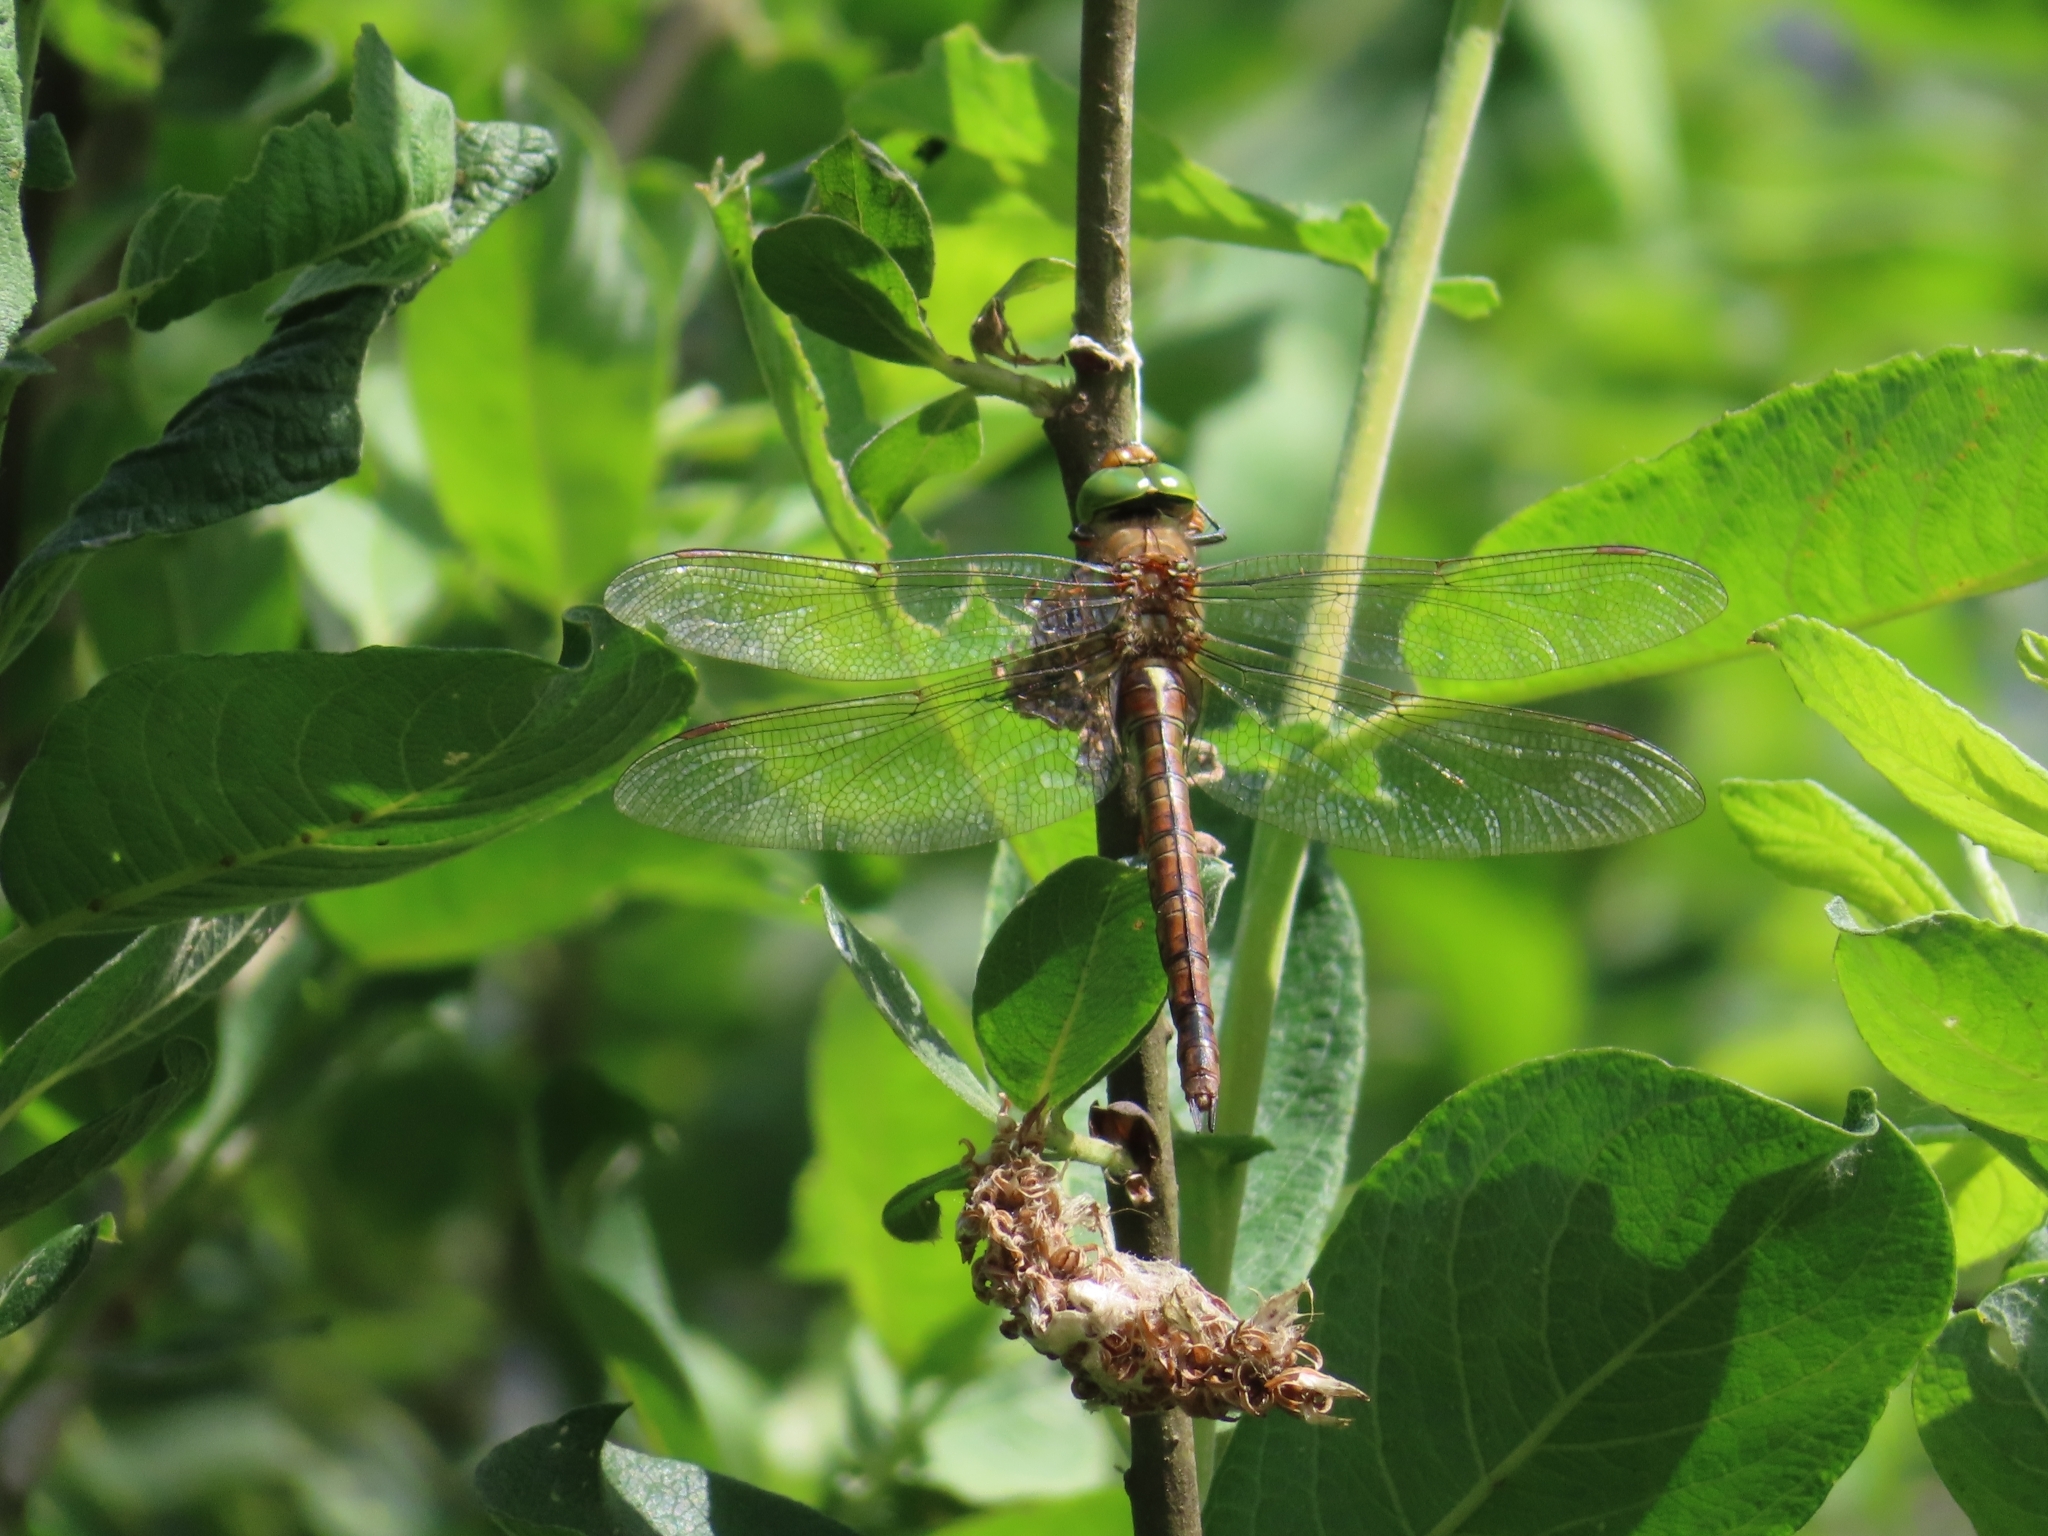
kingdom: Animalia
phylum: Arthropoda
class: Insecta
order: Odonata
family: Aeshnidae
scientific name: Aeshnidae
